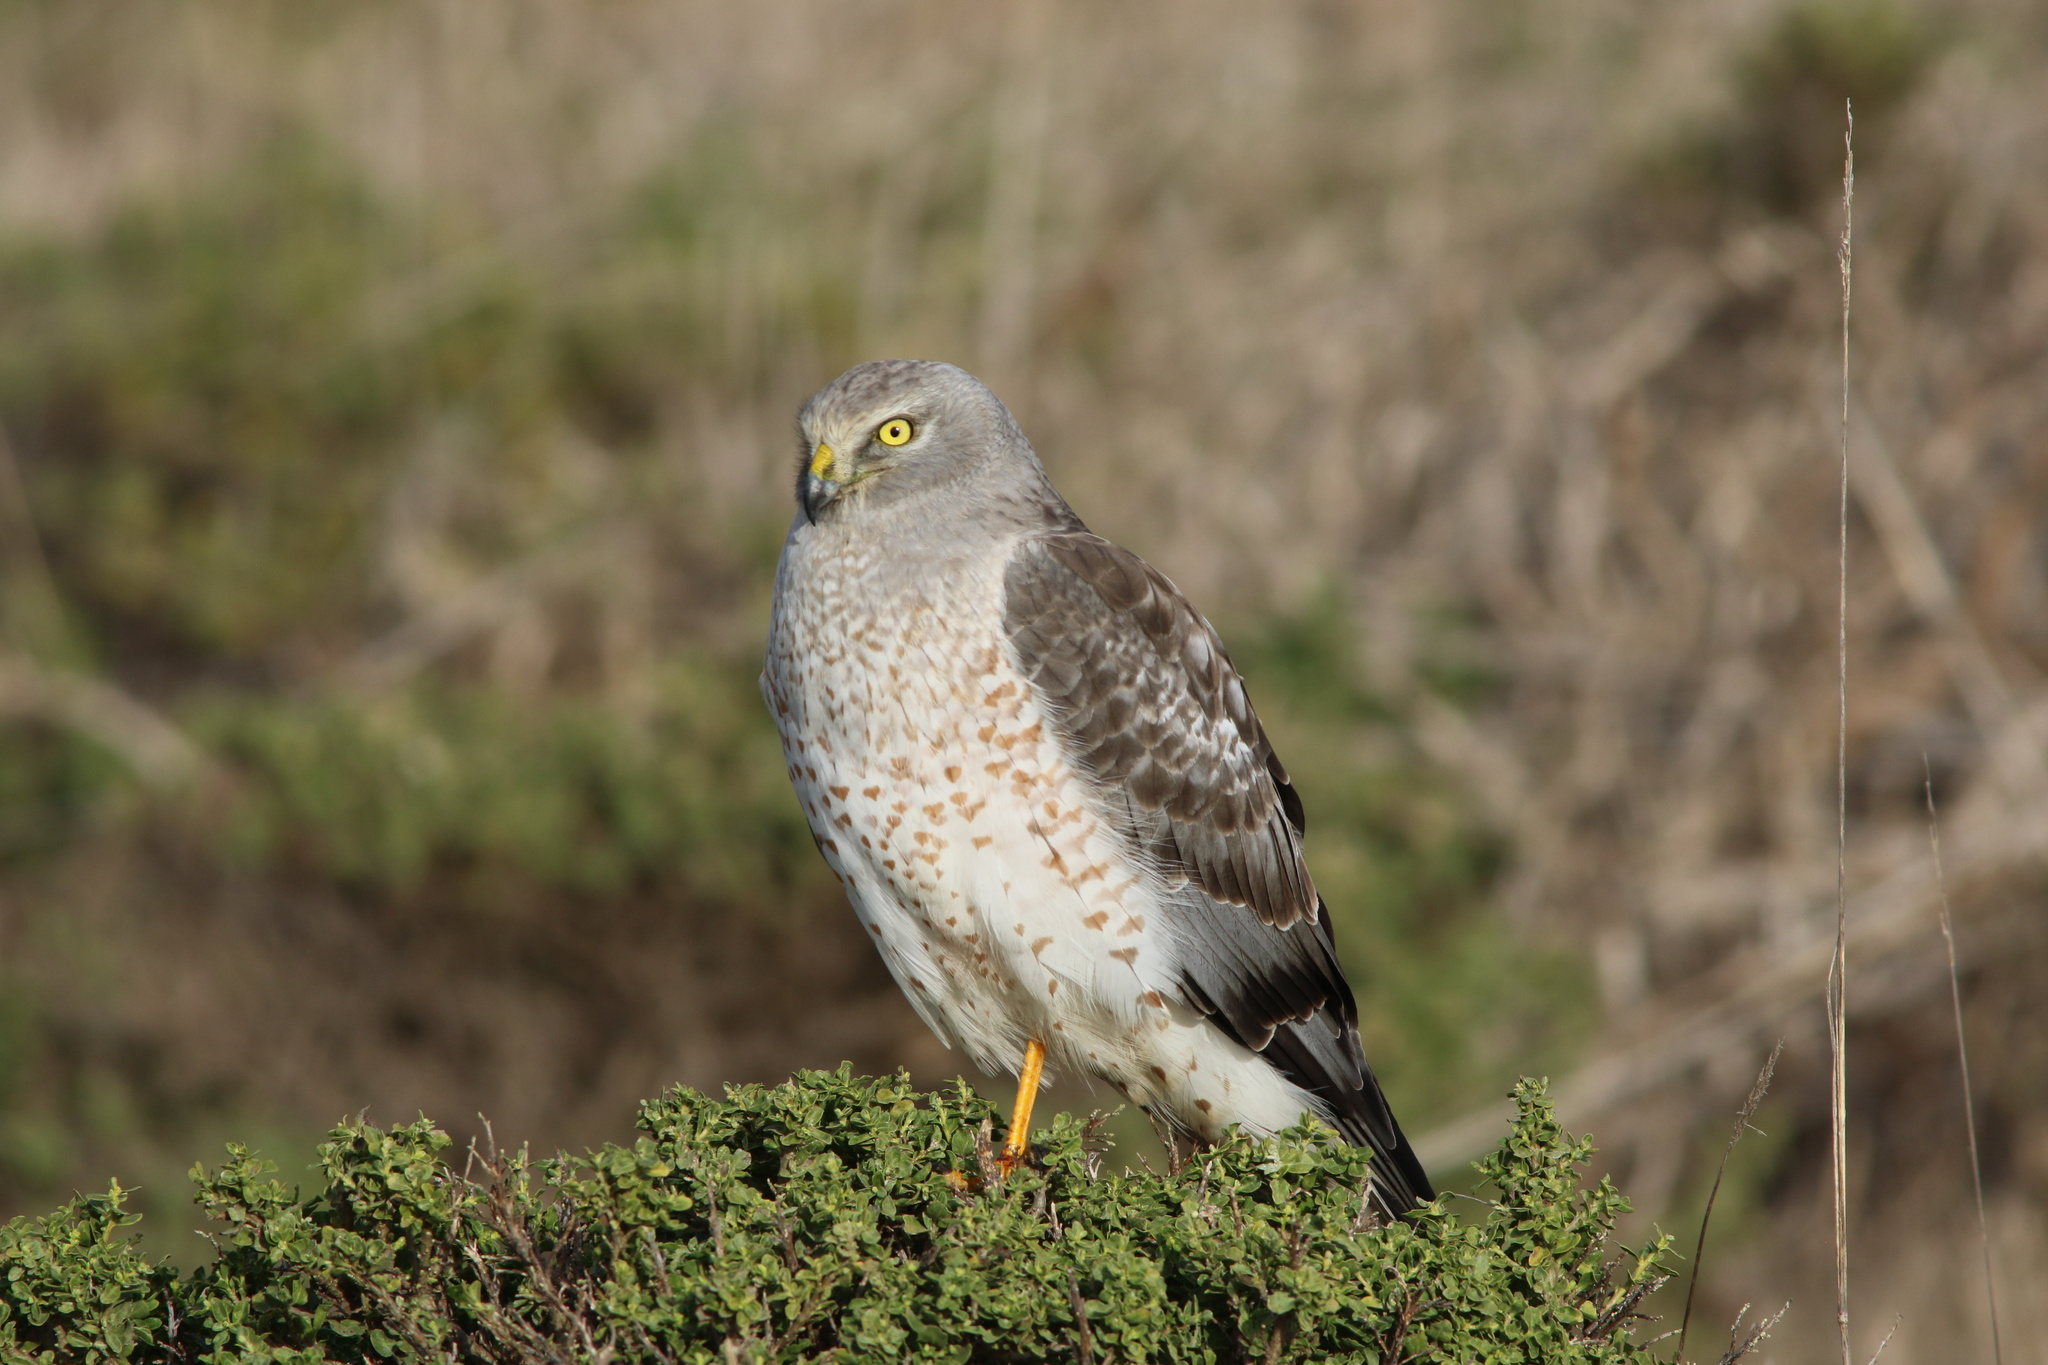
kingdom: Animalia
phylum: Chordata
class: Aves
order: Accipitriformes
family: Accipitridae
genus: Circus
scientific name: Circus cyaneus
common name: Hen harrier
